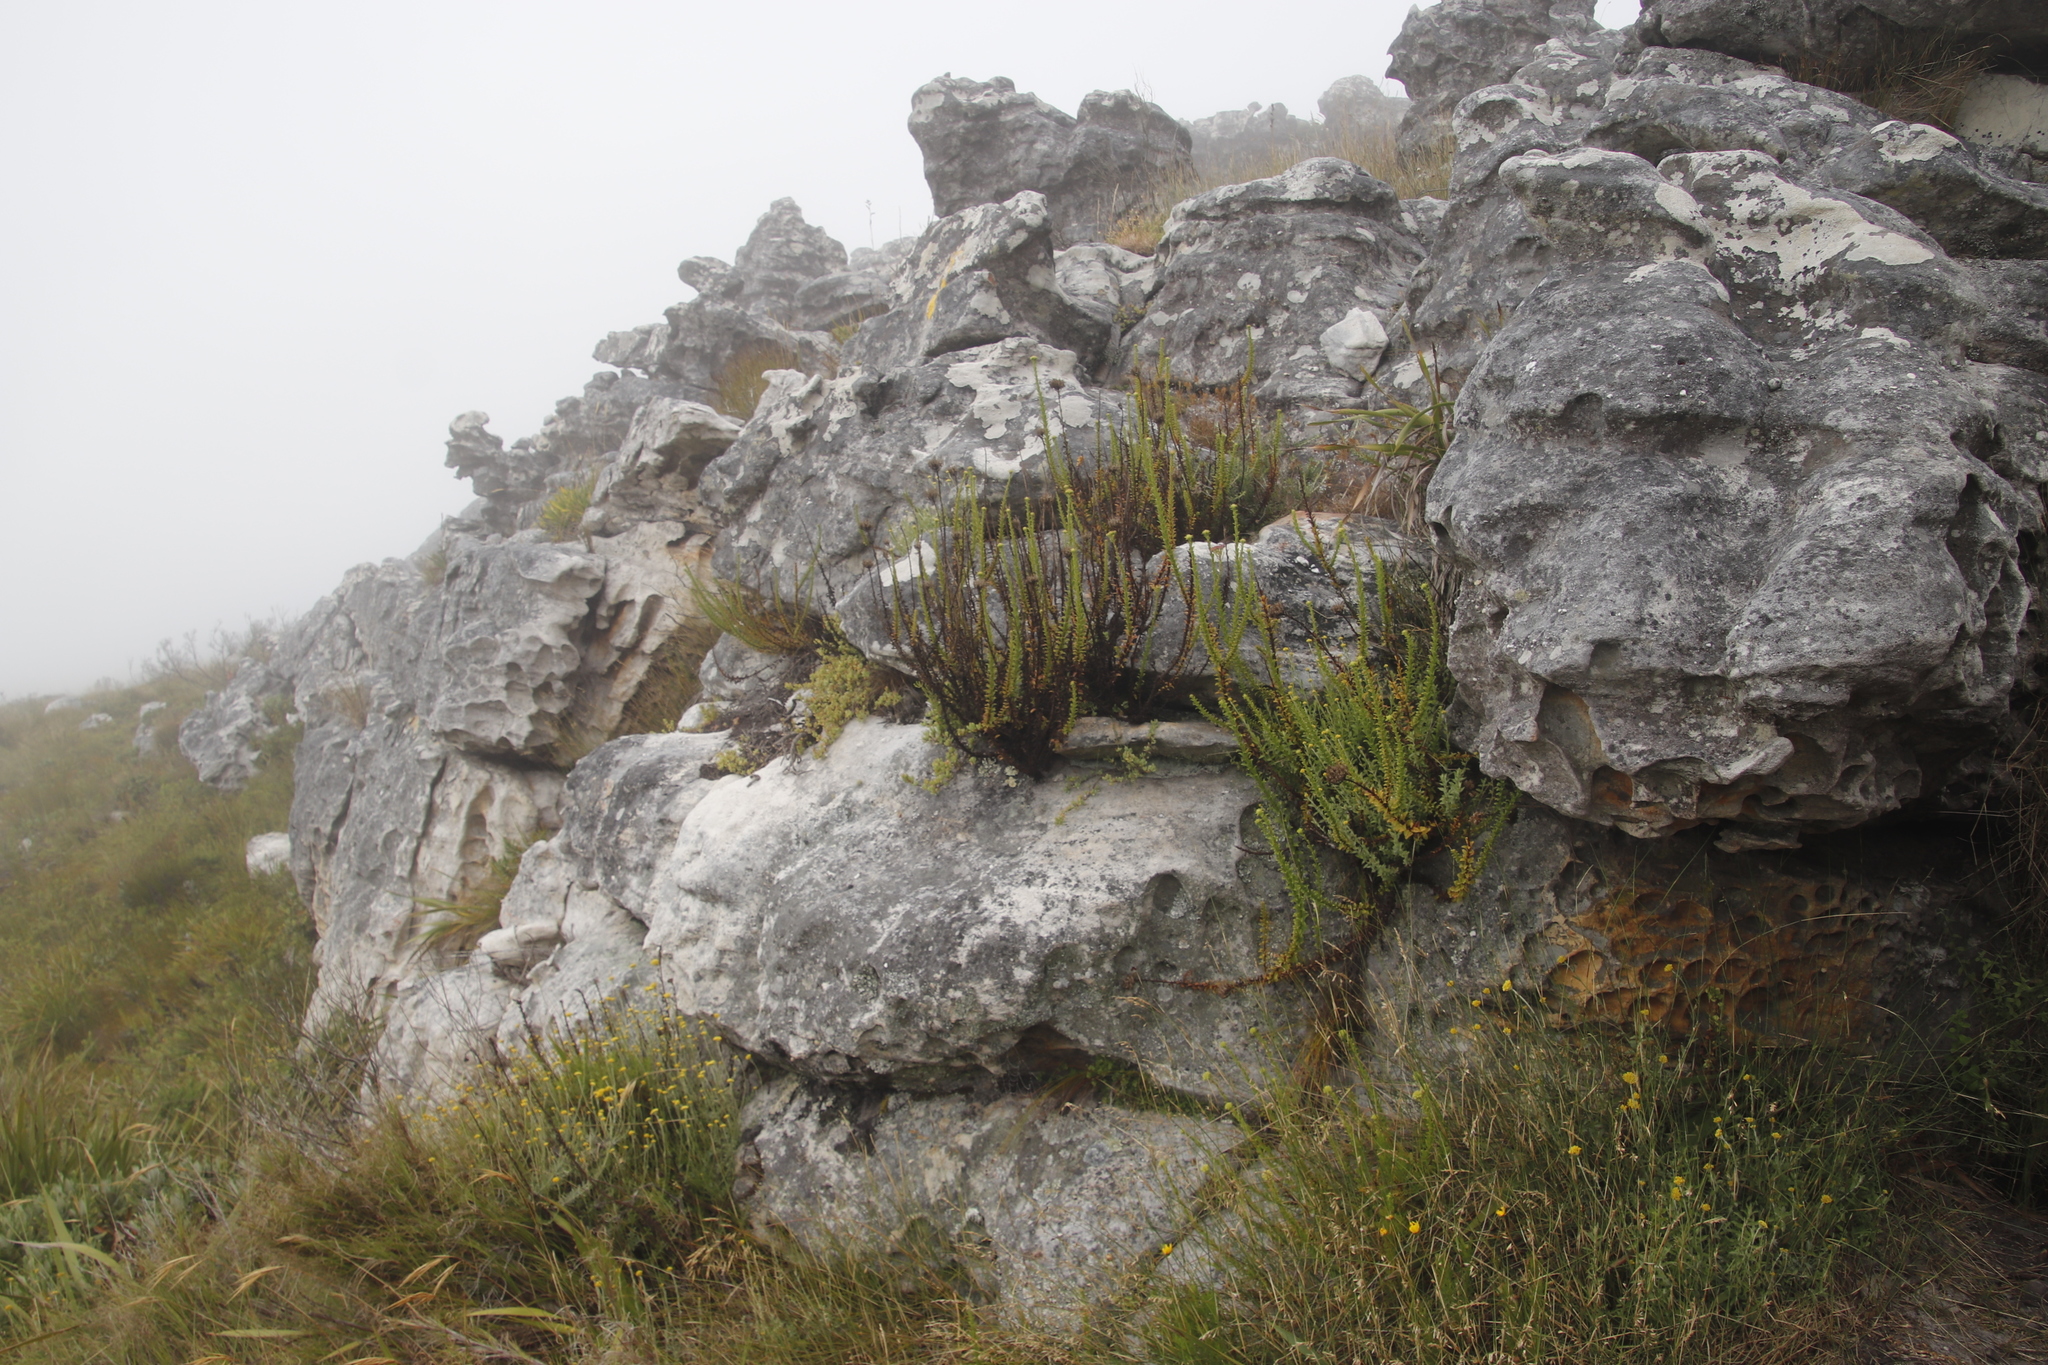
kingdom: Plantae
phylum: Tracheophyta
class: Magnoliopsida
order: Lamiales
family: Scrophulariaceae
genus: Pseudoselago
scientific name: Pseudoselago serrata
